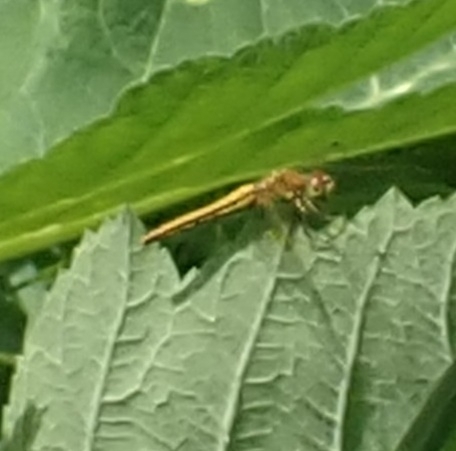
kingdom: Animalia
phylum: Arthropoda
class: Insecta
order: Odonata
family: Libellulidae
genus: Sympetrum
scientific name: Sympetrum flaveolum
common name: Yellow-winged darter
